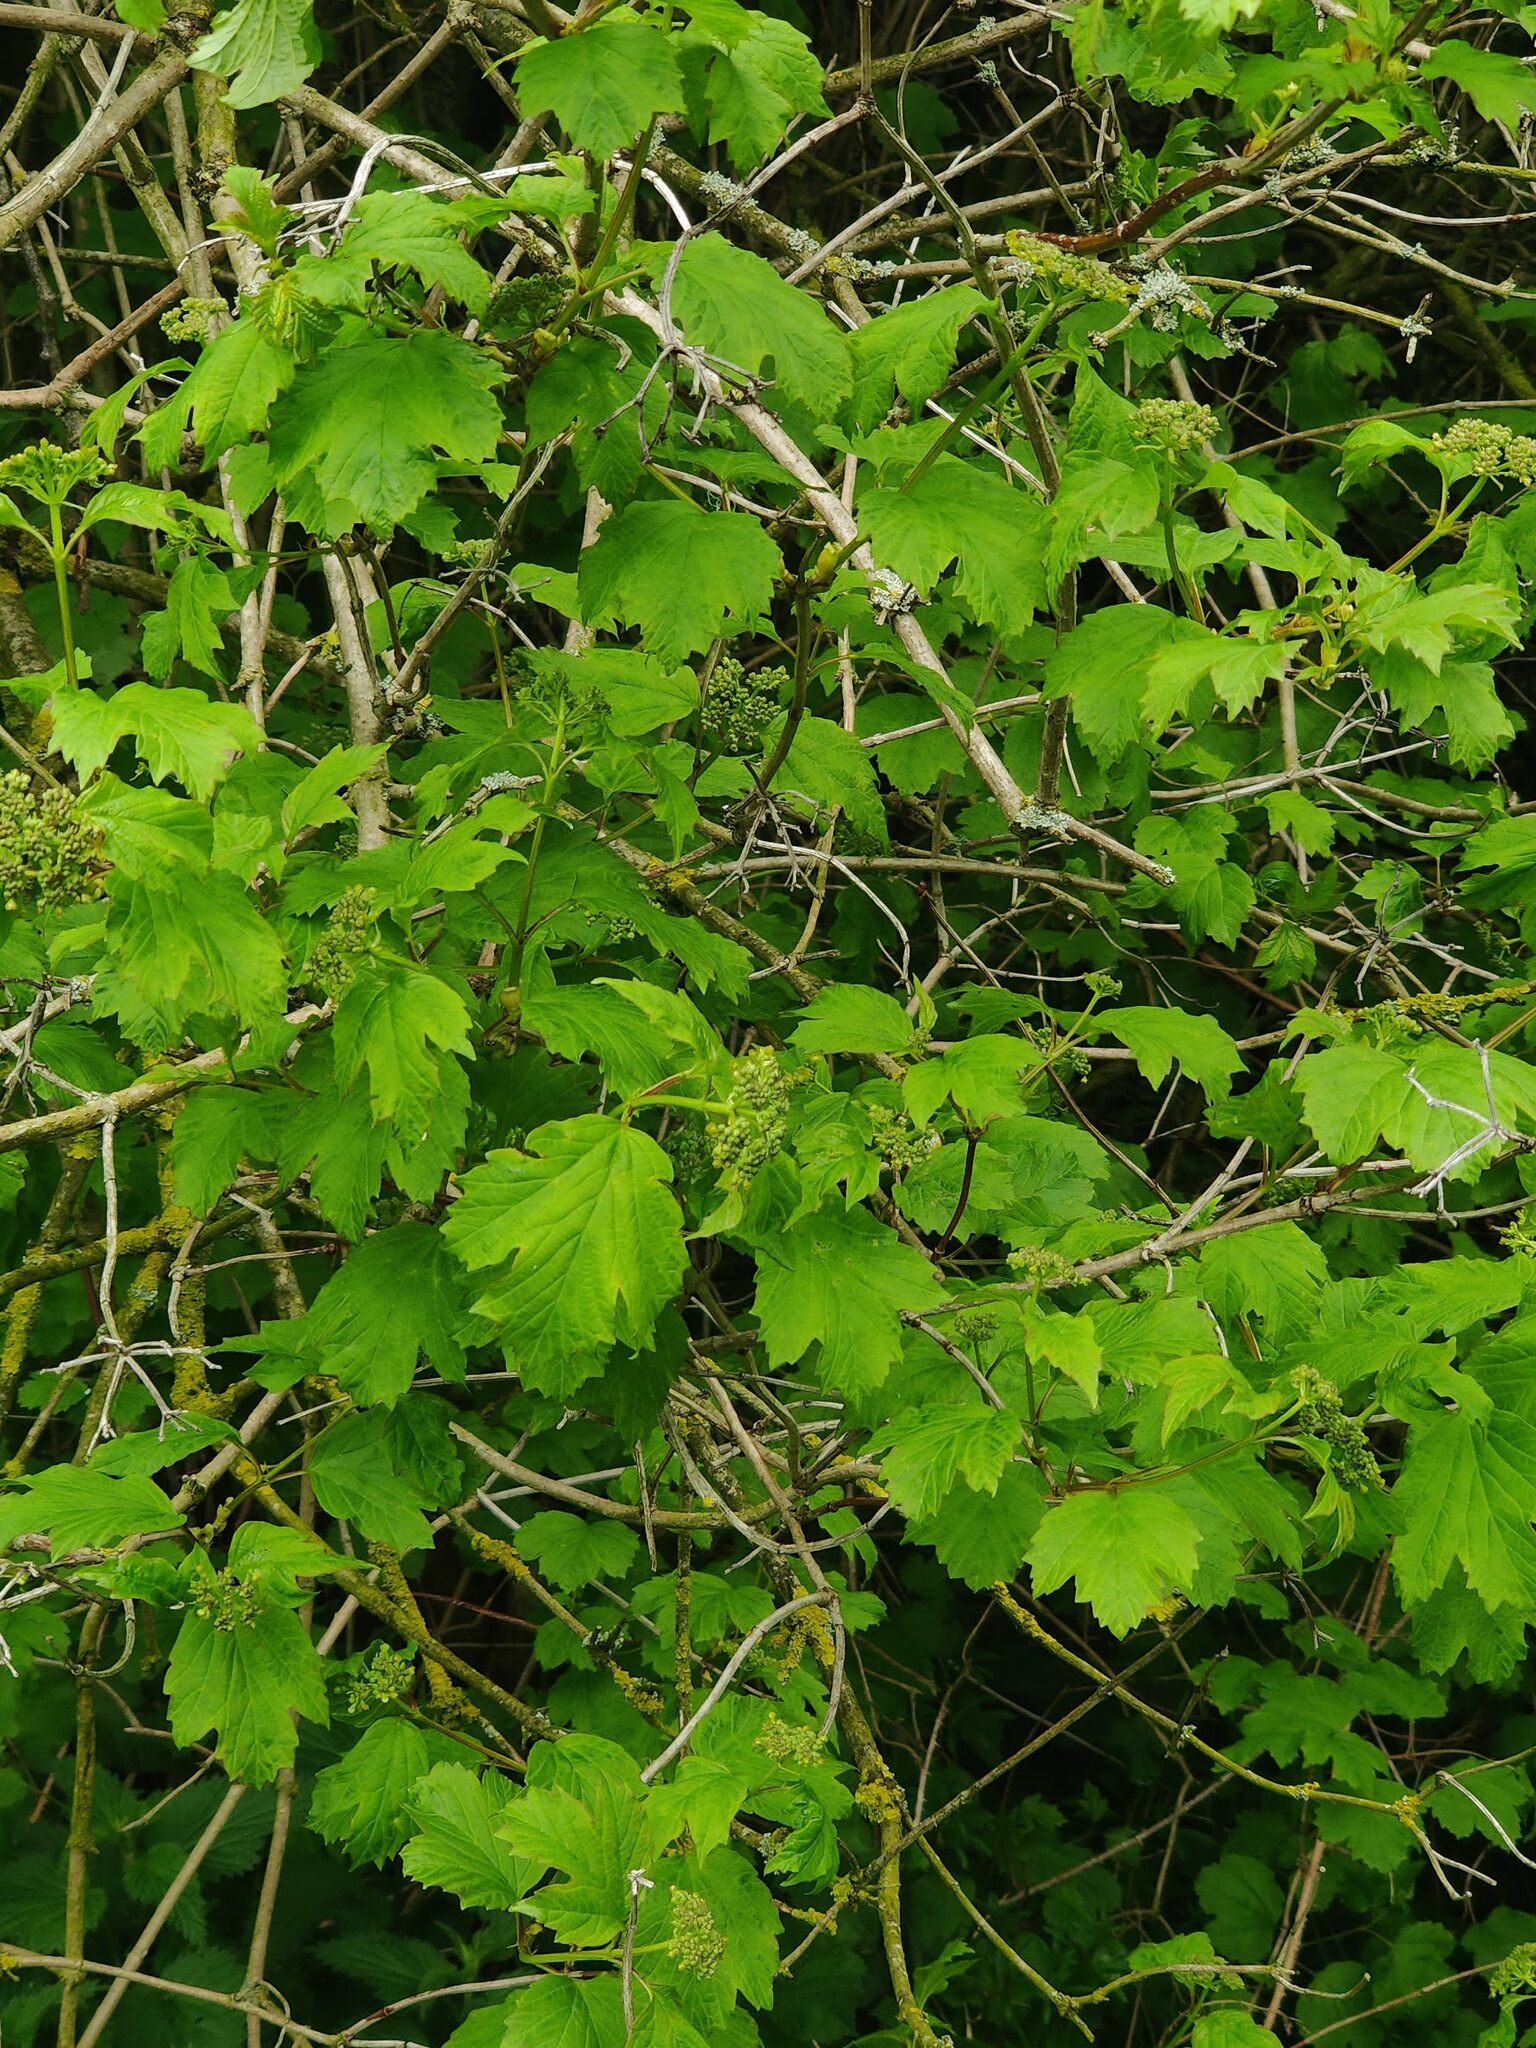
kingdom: Plantae
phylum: Tracheophyta
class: Magnoliopsida
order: Dipsacales
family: Viburnaceae
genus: Viburnum
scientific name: Viburnum opulus
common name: Guelder-rose
